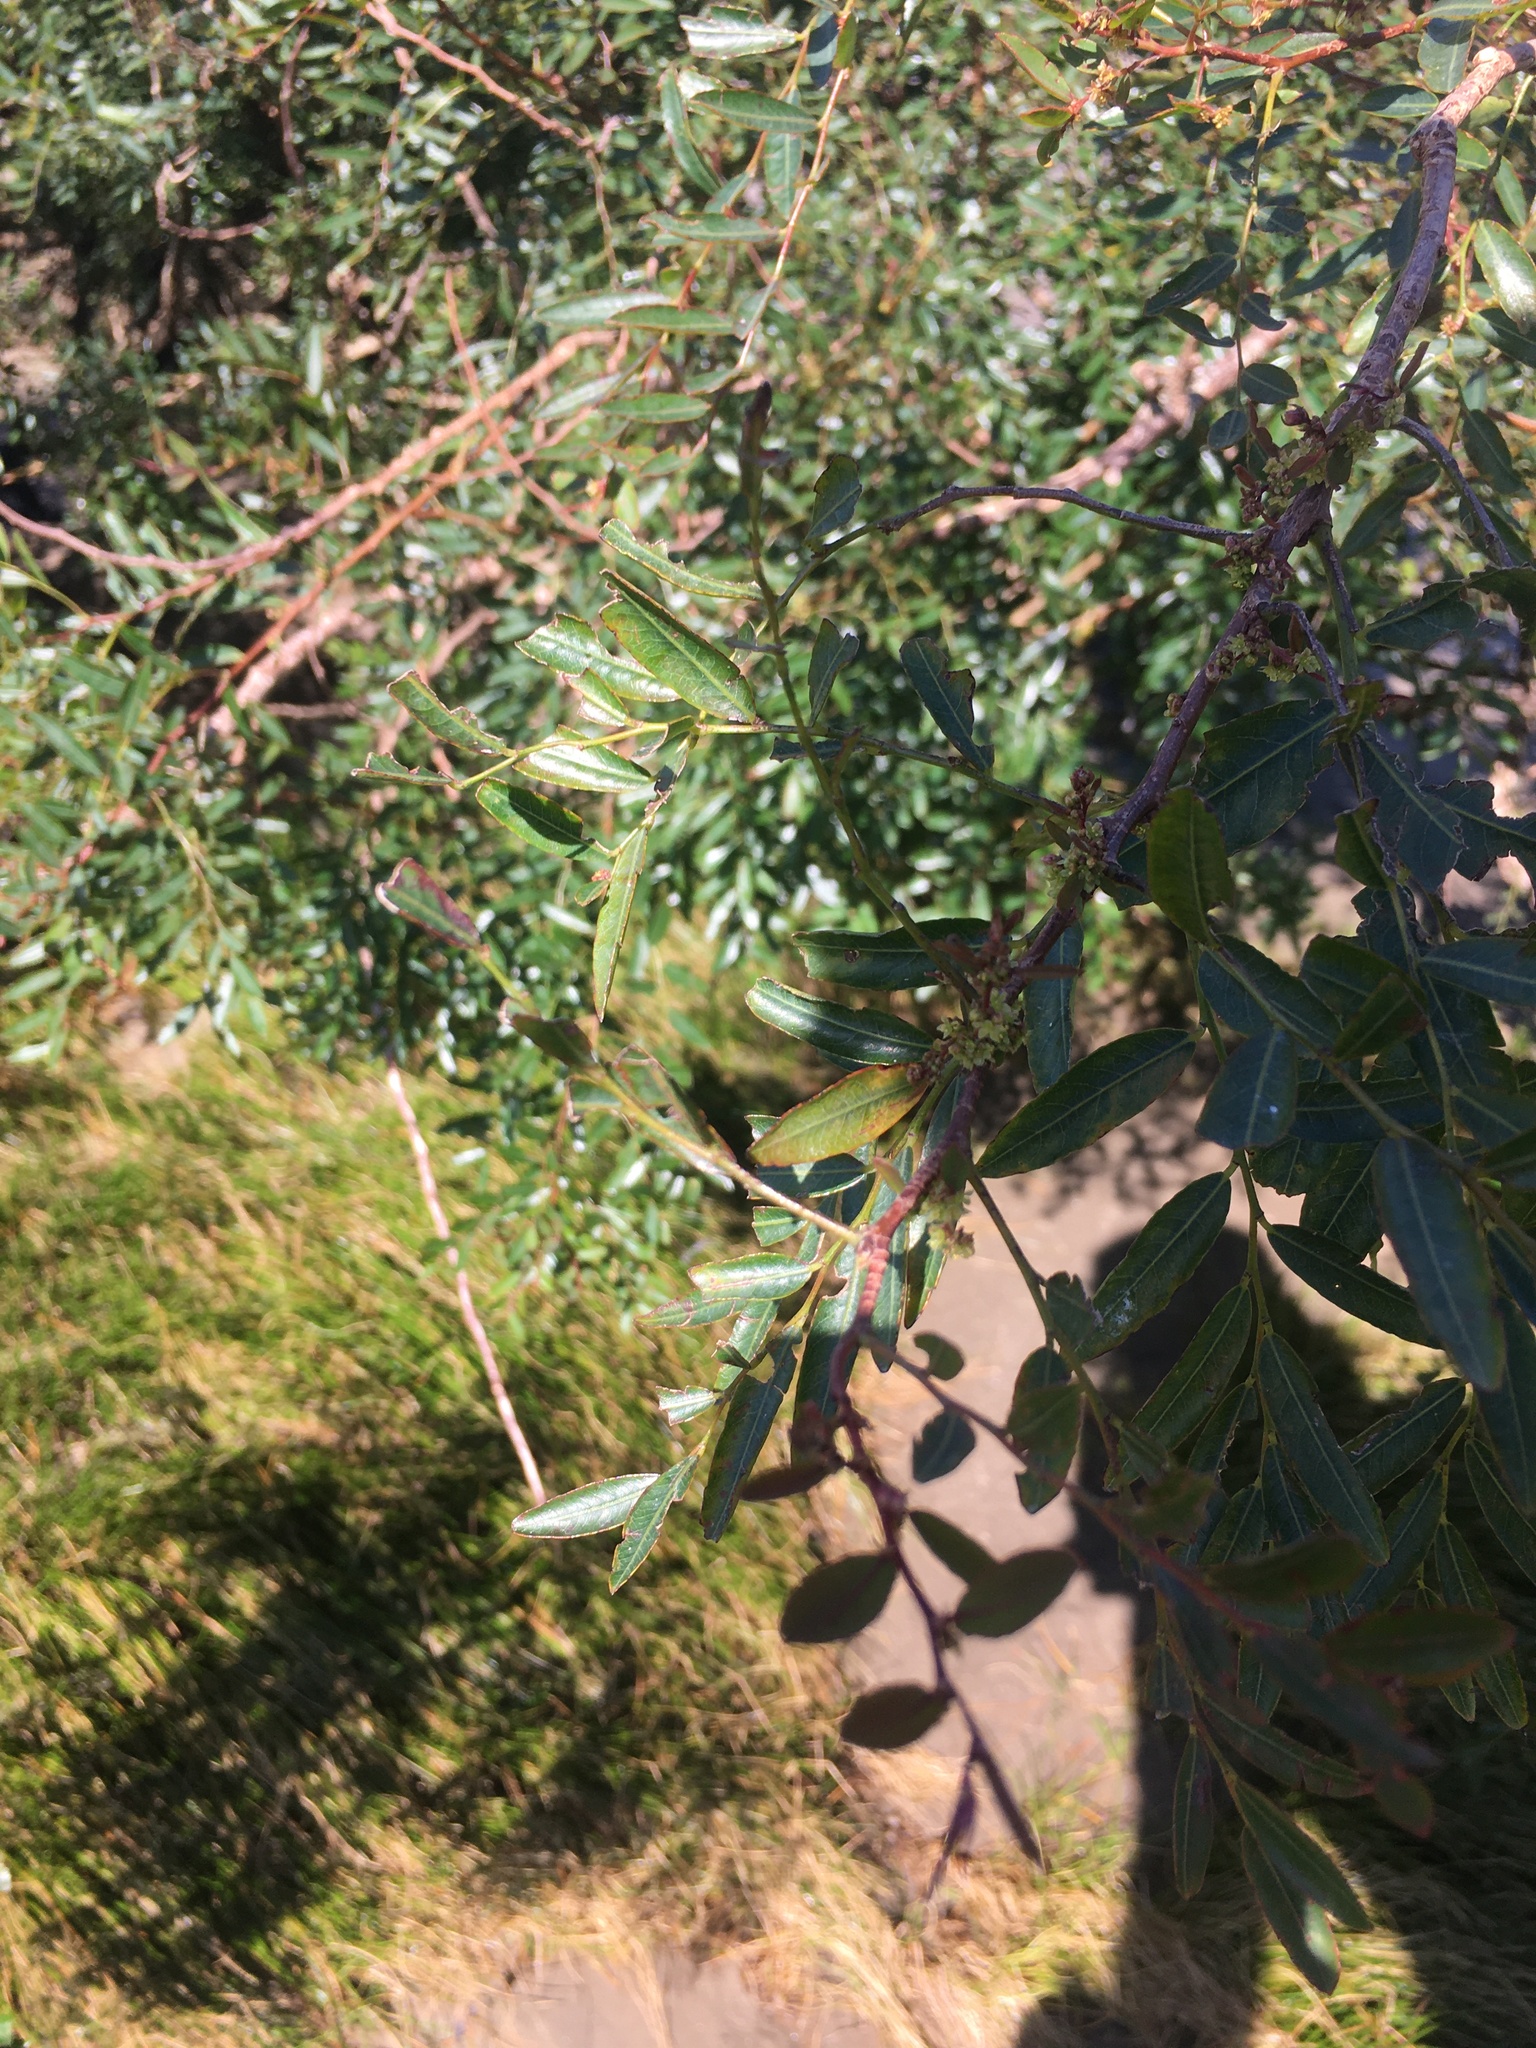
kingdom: Plantae
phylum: Tracheophyta
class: Magnoliopsida
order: Malpighiales
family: Phyllanthaceae
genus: Phyllanthus
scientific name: Phyllanthus sellowianus
